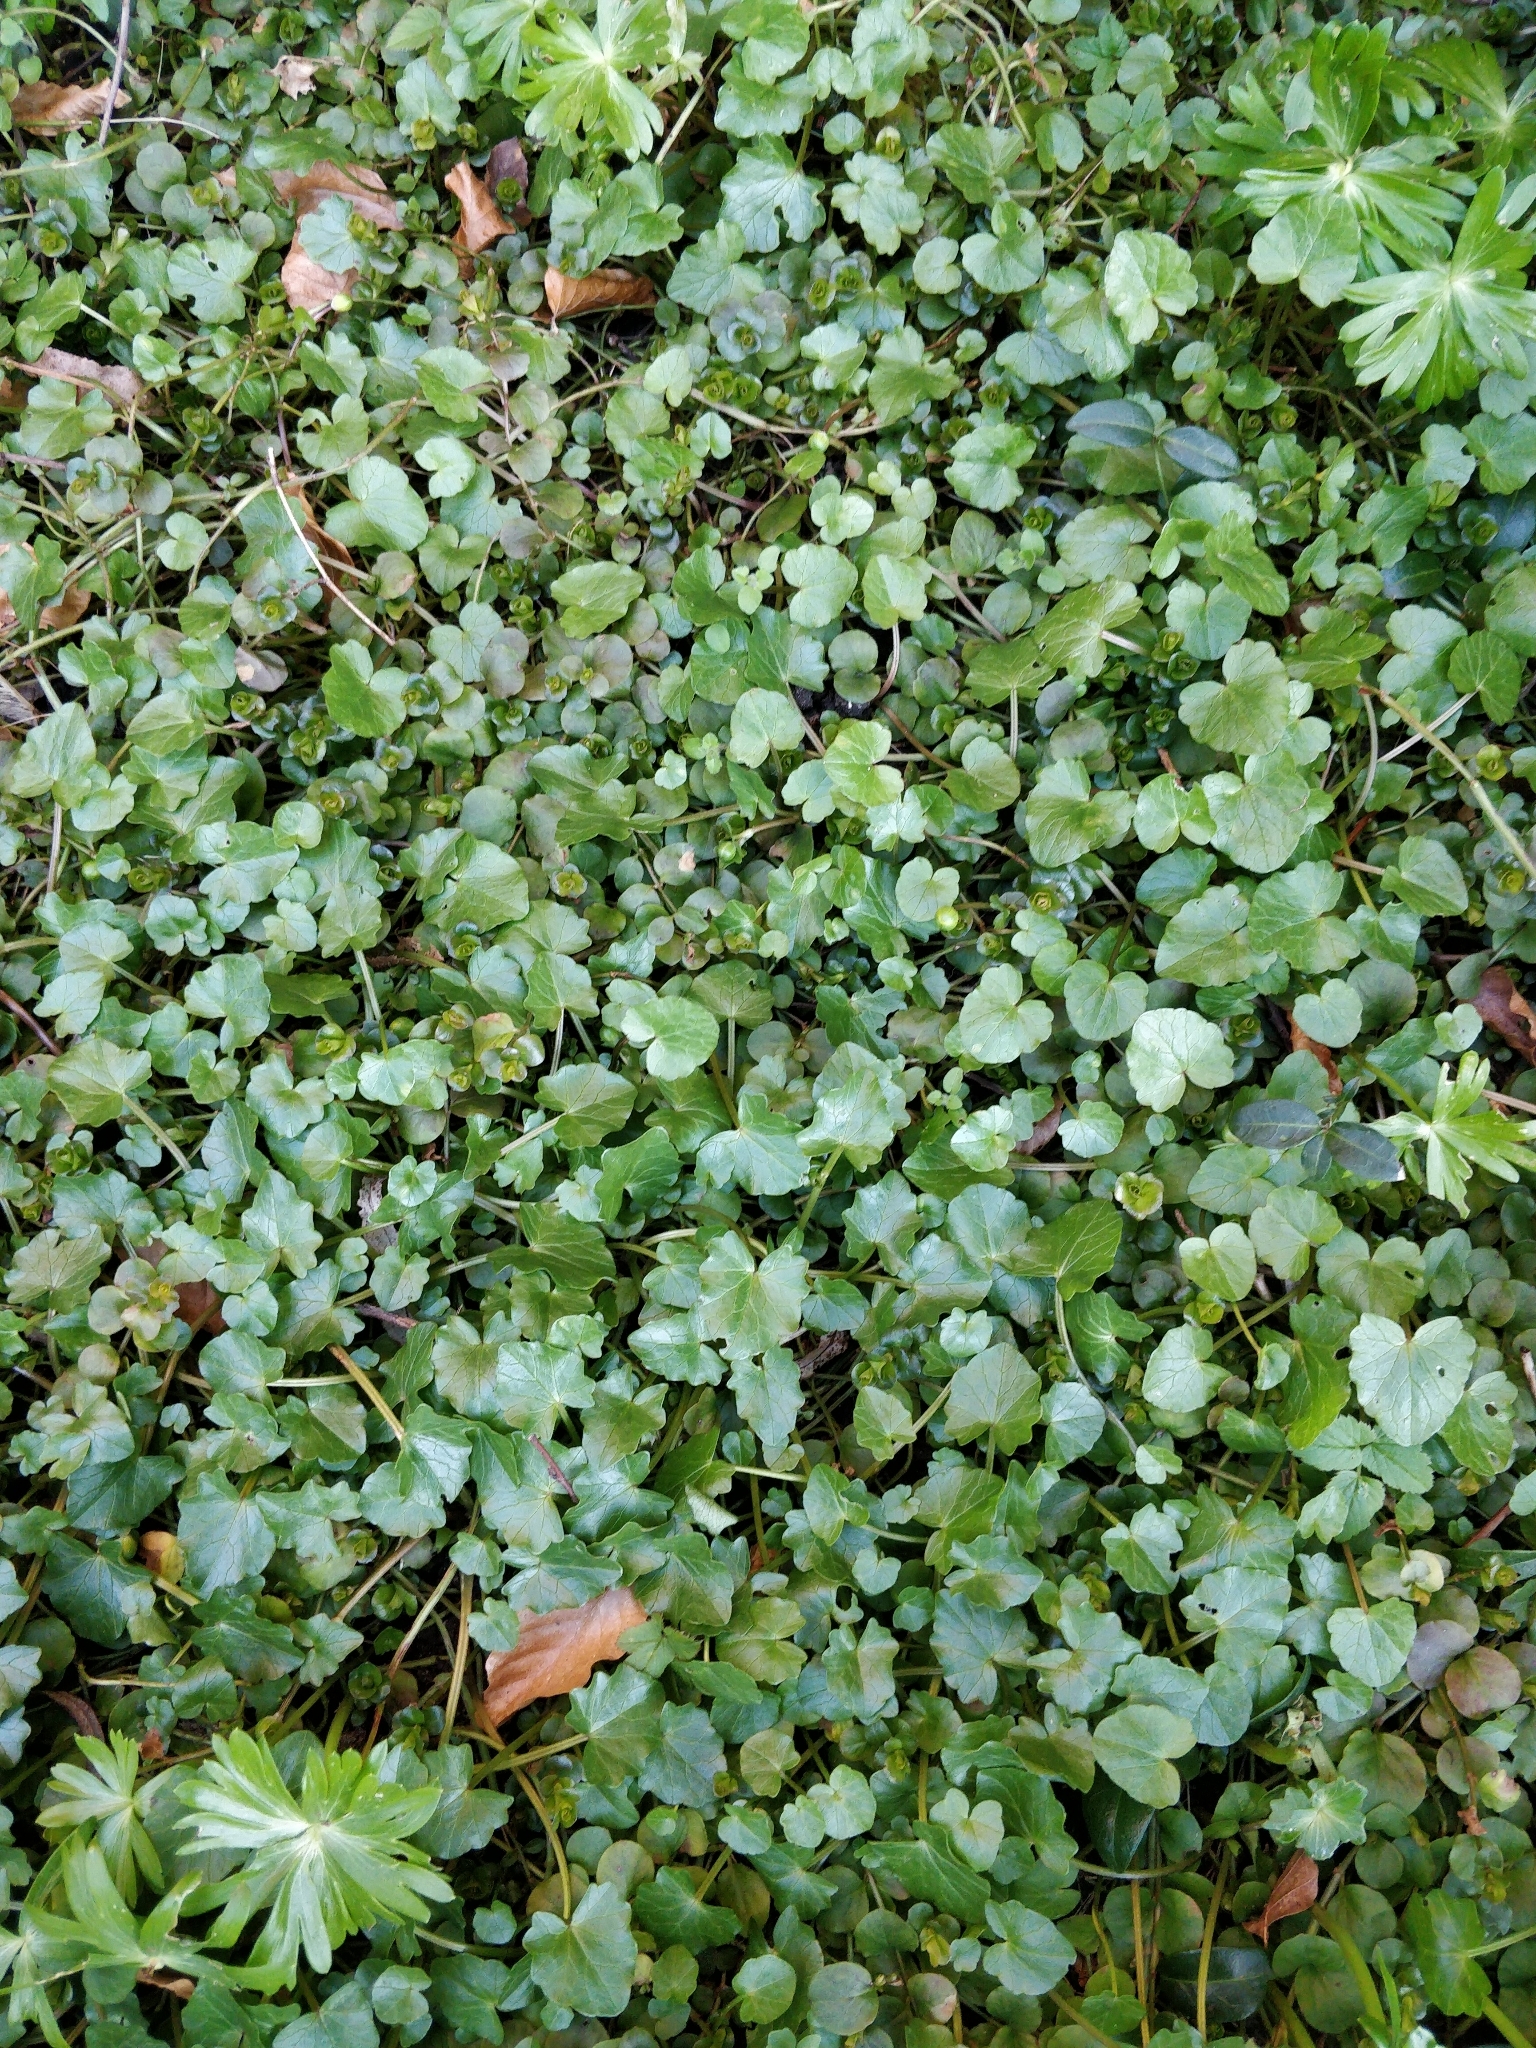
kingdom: Plantae
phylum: Tracheophyta
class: Magnoliopsida
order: Ranunculales
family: Ranunculaceae
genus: Ficaria
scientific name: Ficaria verna
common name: Lesser celandine
